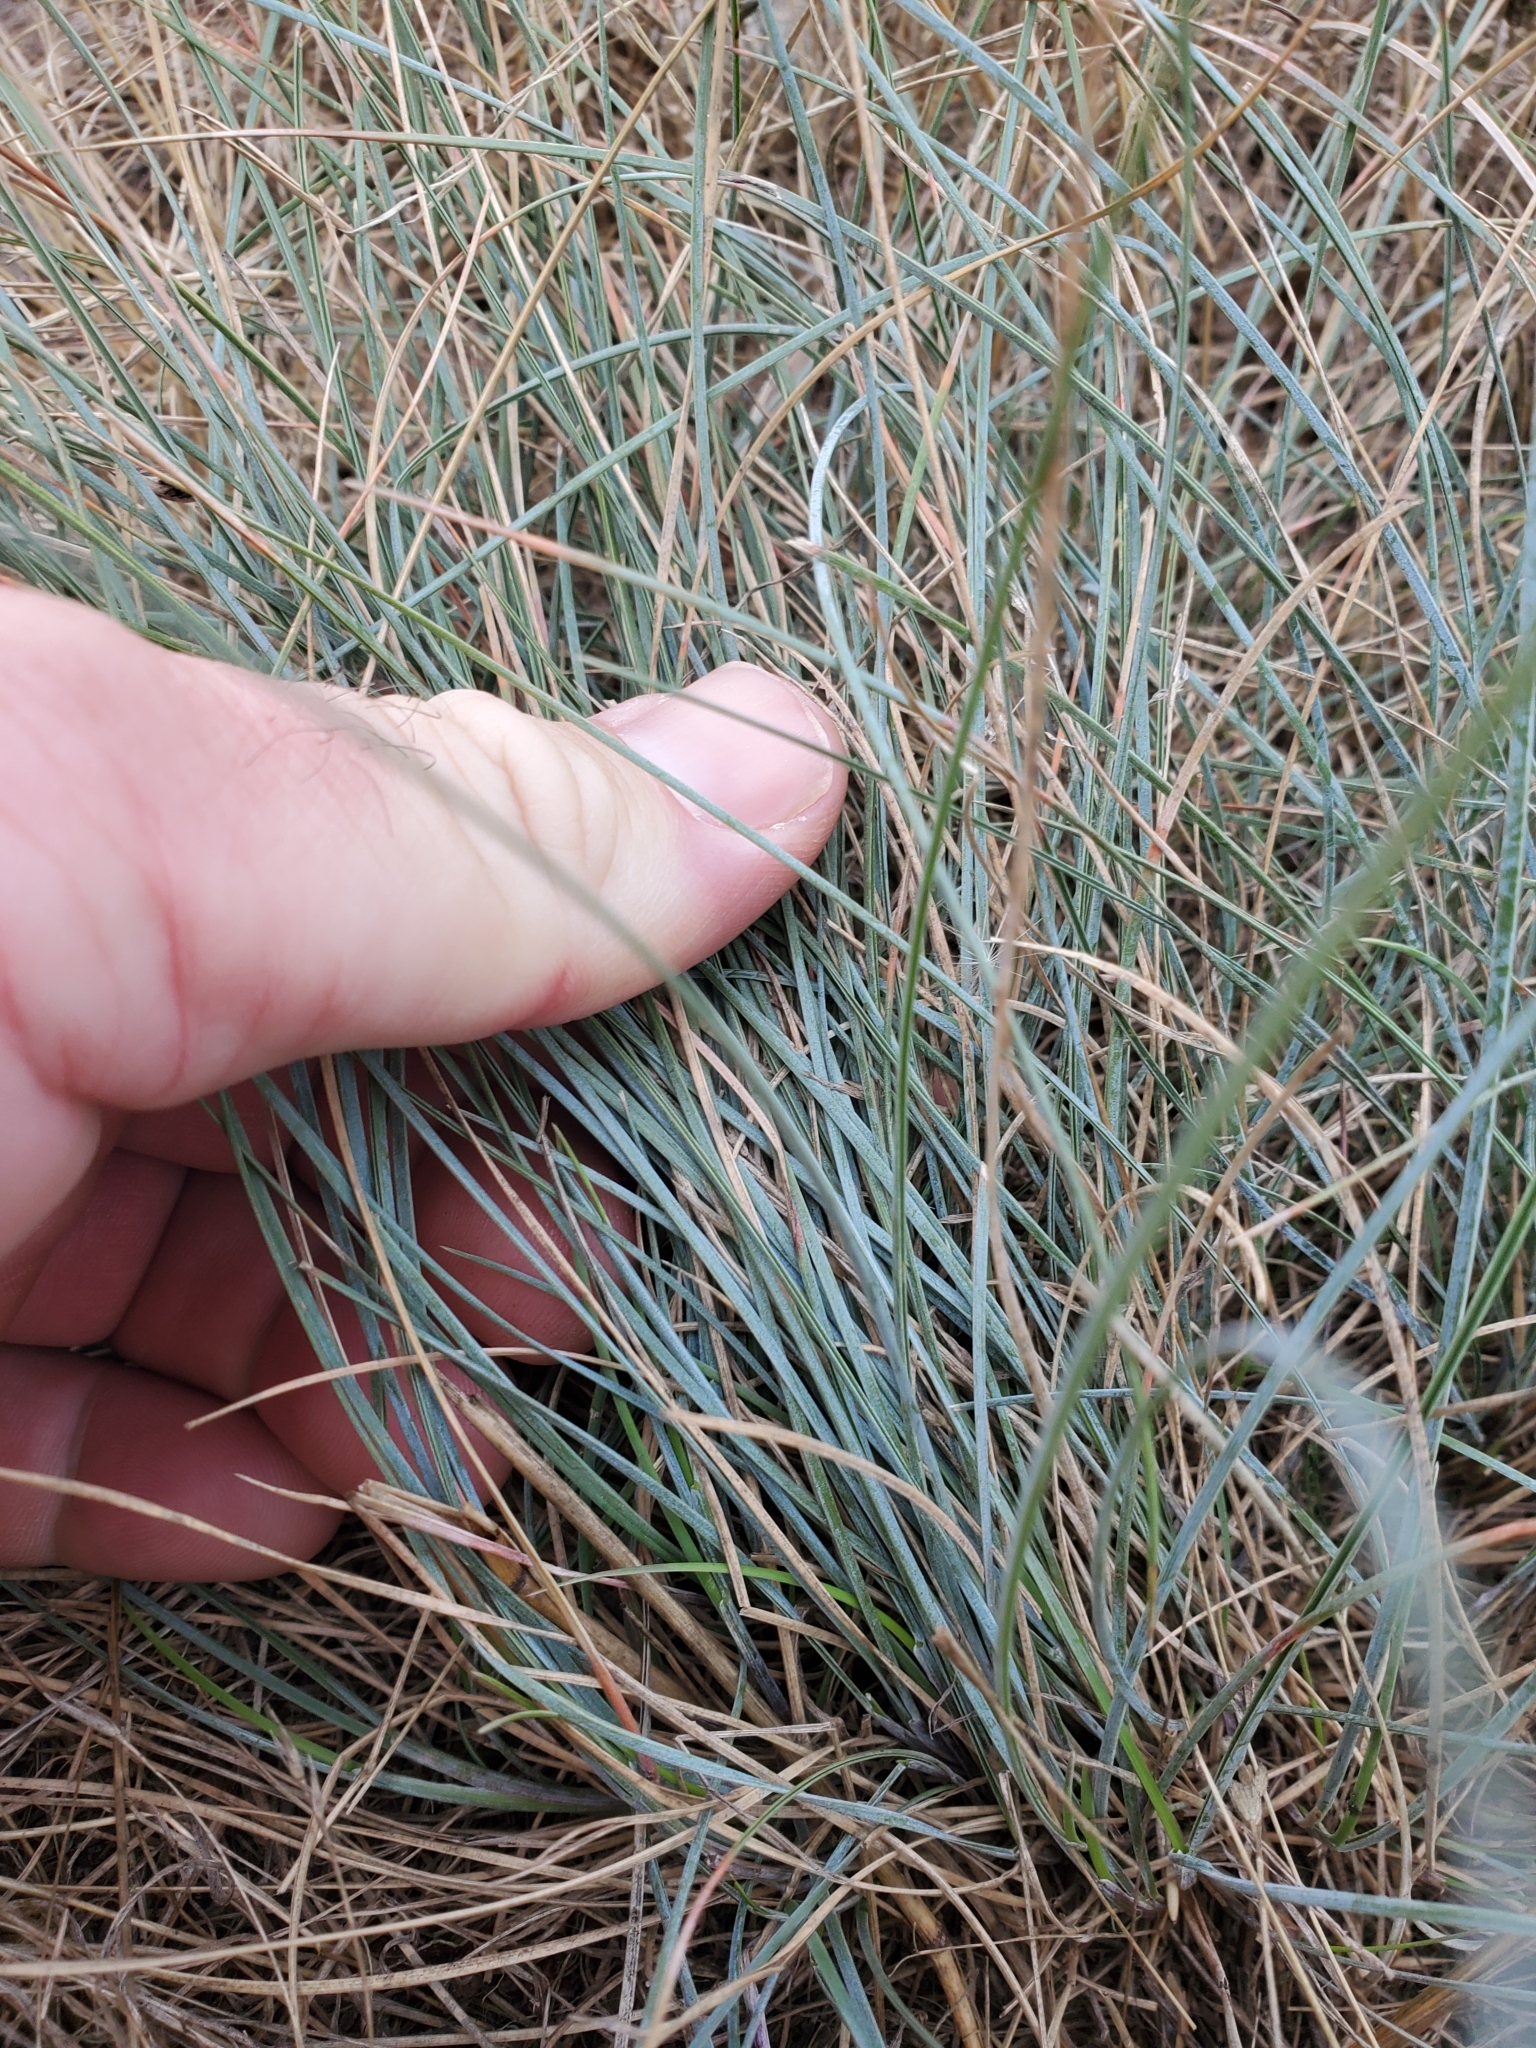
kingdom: Plantae
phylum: Tracheophyta
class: Liliopsida
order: Poales
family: Poaceae
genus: Festuca
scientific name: Festuca idahoensis
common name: Idaho fescue
